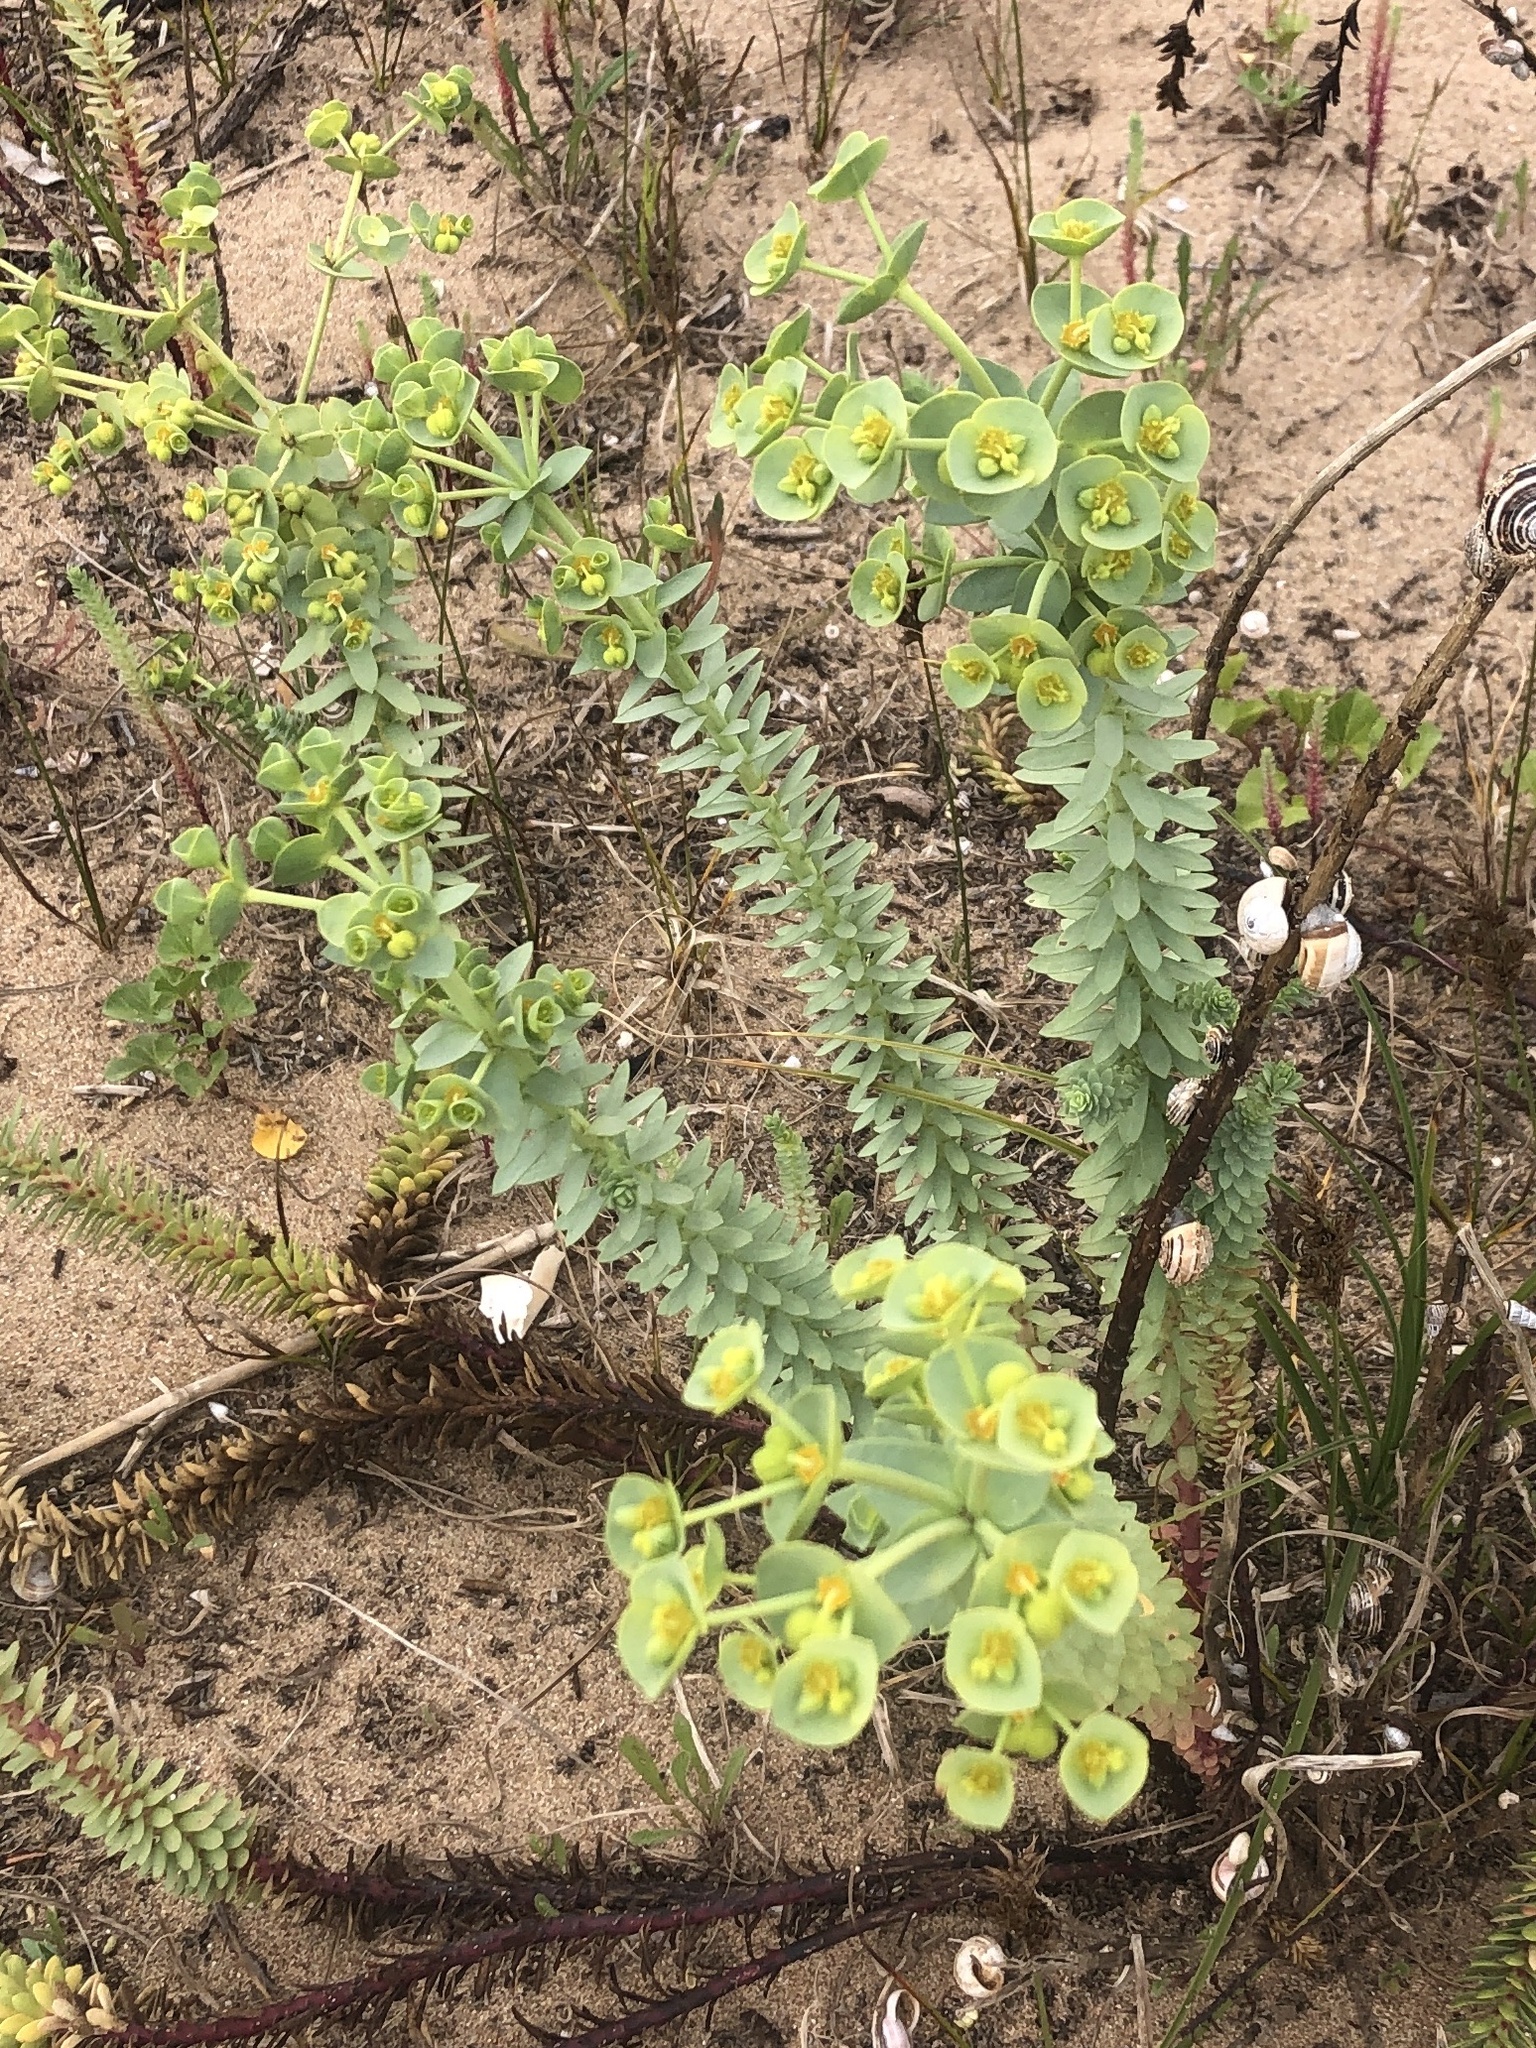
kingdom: Plantae
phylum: Tracheophyta
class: Magnoliopsida
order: Malpighiales
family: Euphorbiaceae
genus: Euphorbia
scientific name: Euphorbia paralias
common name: Sea spurge
